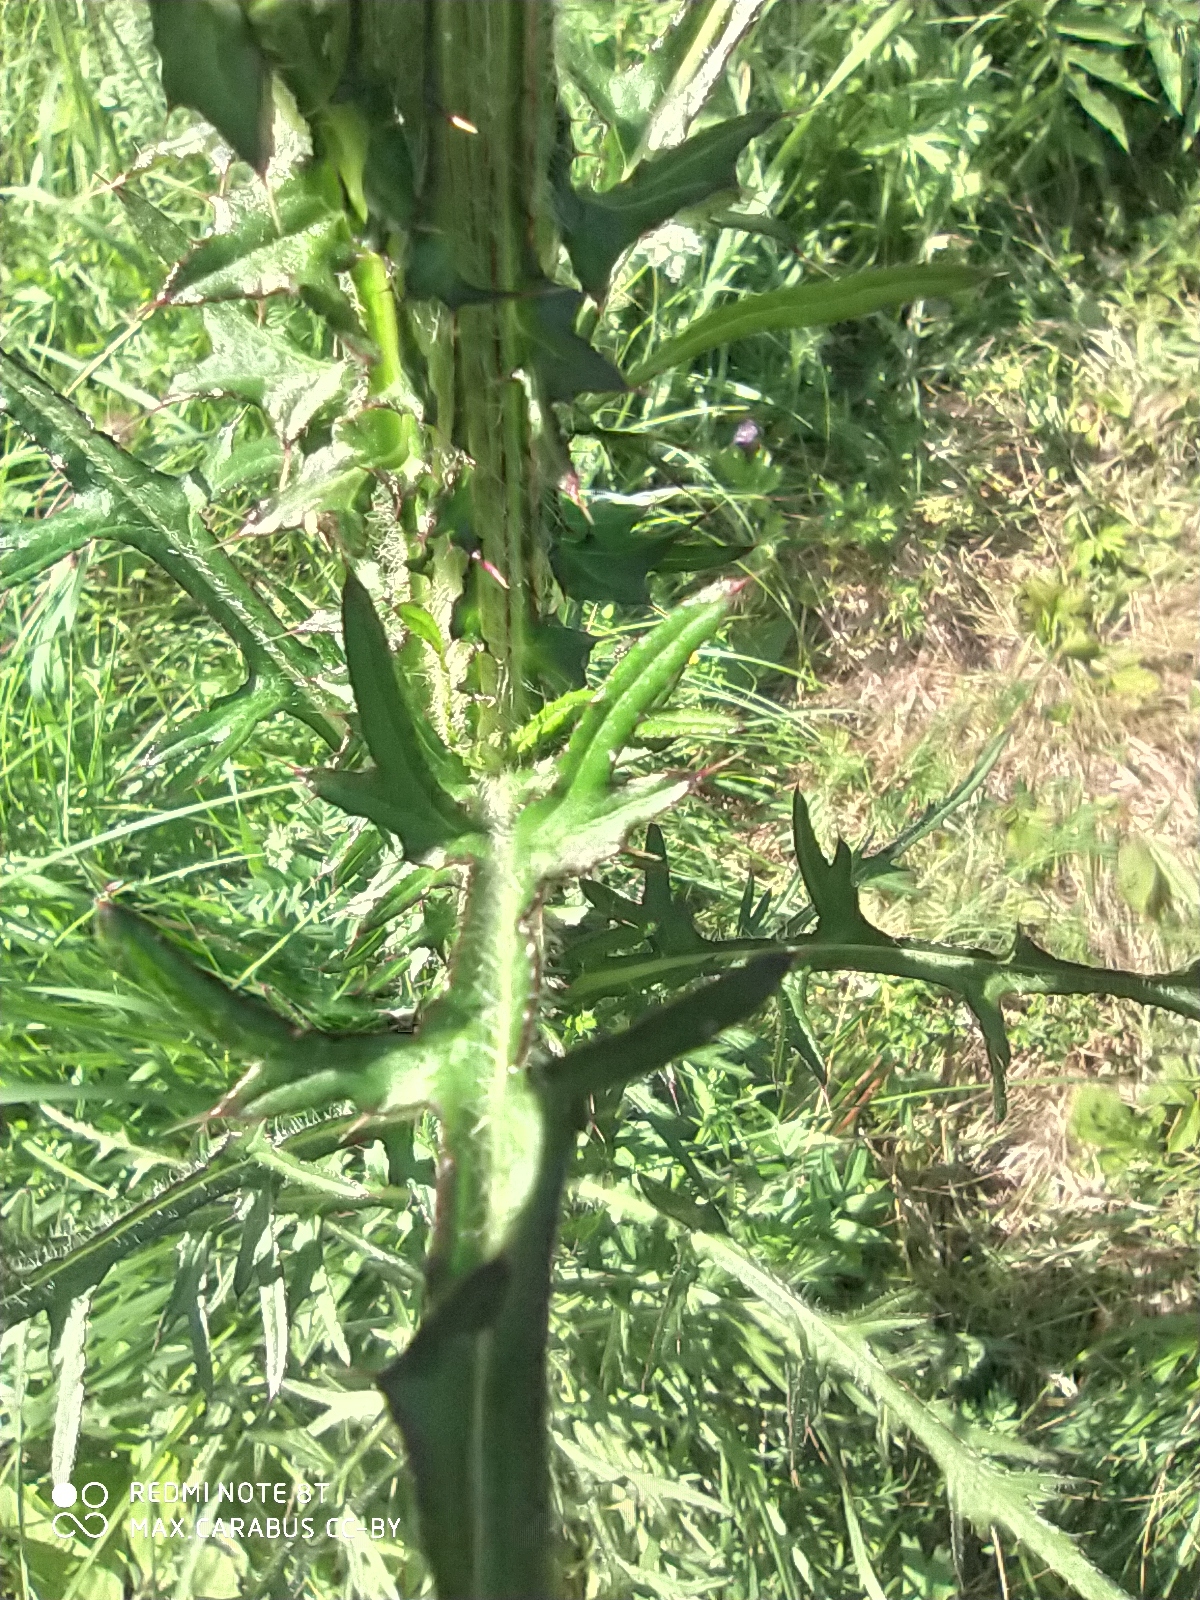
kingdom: Plantae
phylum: Tracheophyta
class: Magnoliopsida
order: Asterales
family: Asteraceae
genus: Cirsium
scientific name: Cirsium palustre
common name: Marsh thistle
